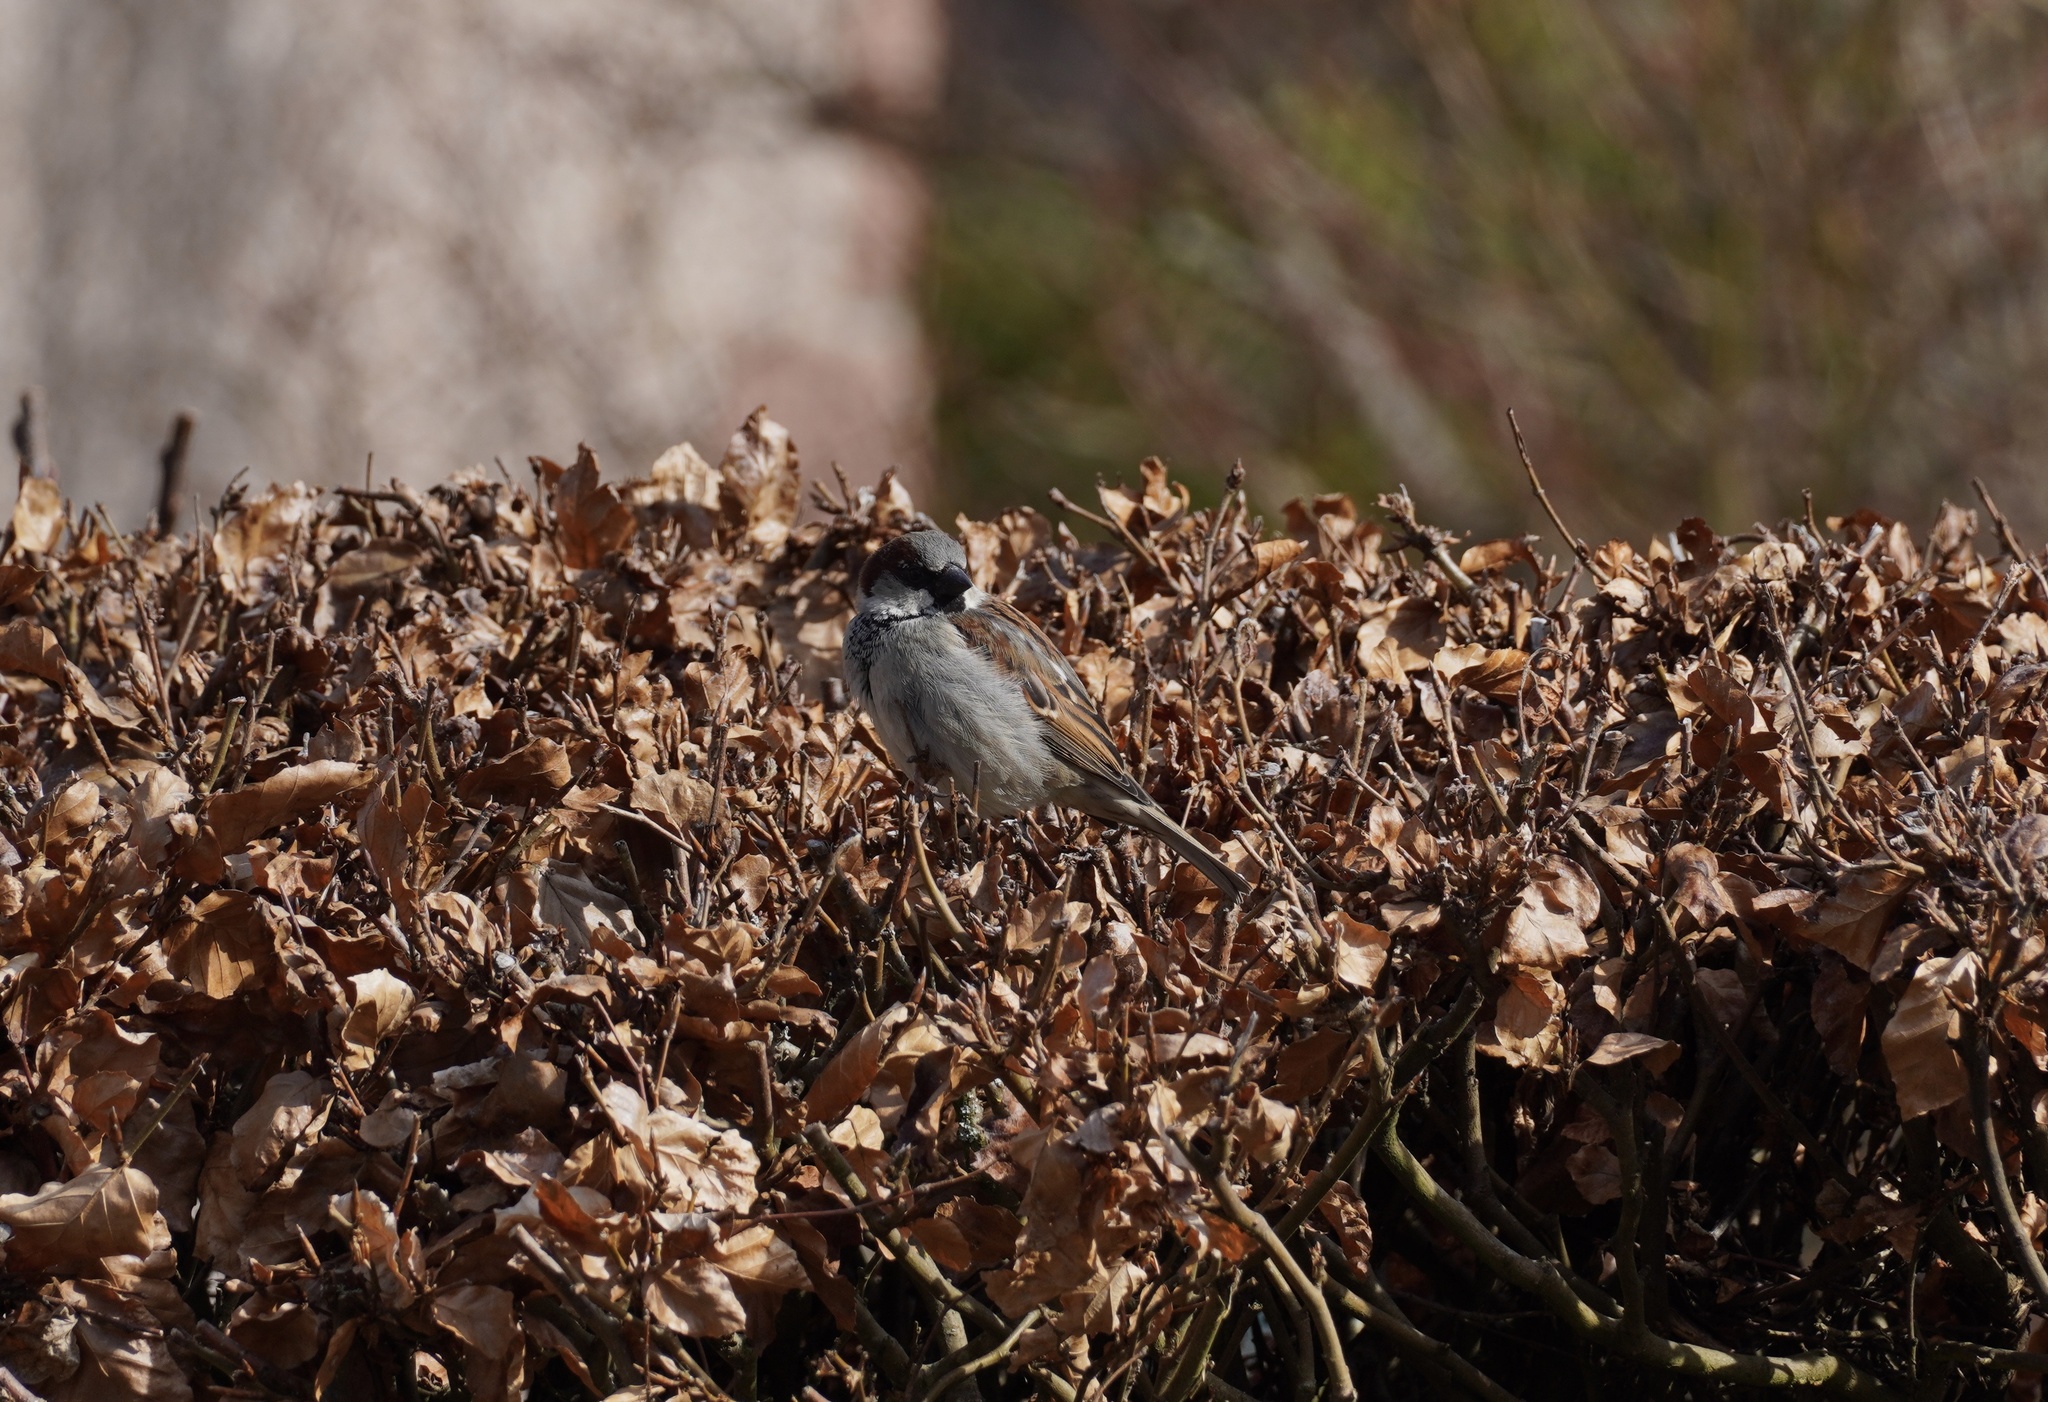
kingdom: Animalia
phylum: Chordata
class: Aves
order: Passeriformes
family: Passeridae
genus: Passer
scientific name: Passer domesticus
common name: House sparrow
